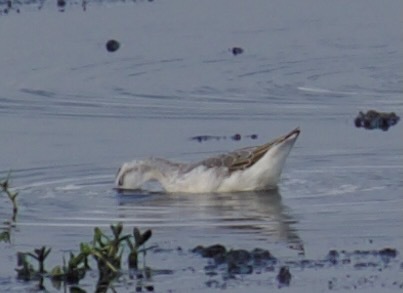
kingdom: Animalia
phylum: Chordata
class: Aves
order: Charadriiformes
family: Scolopacidae
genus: Phalaropus
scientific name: Phalaropus tricolor
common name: Wilson's phalarope
